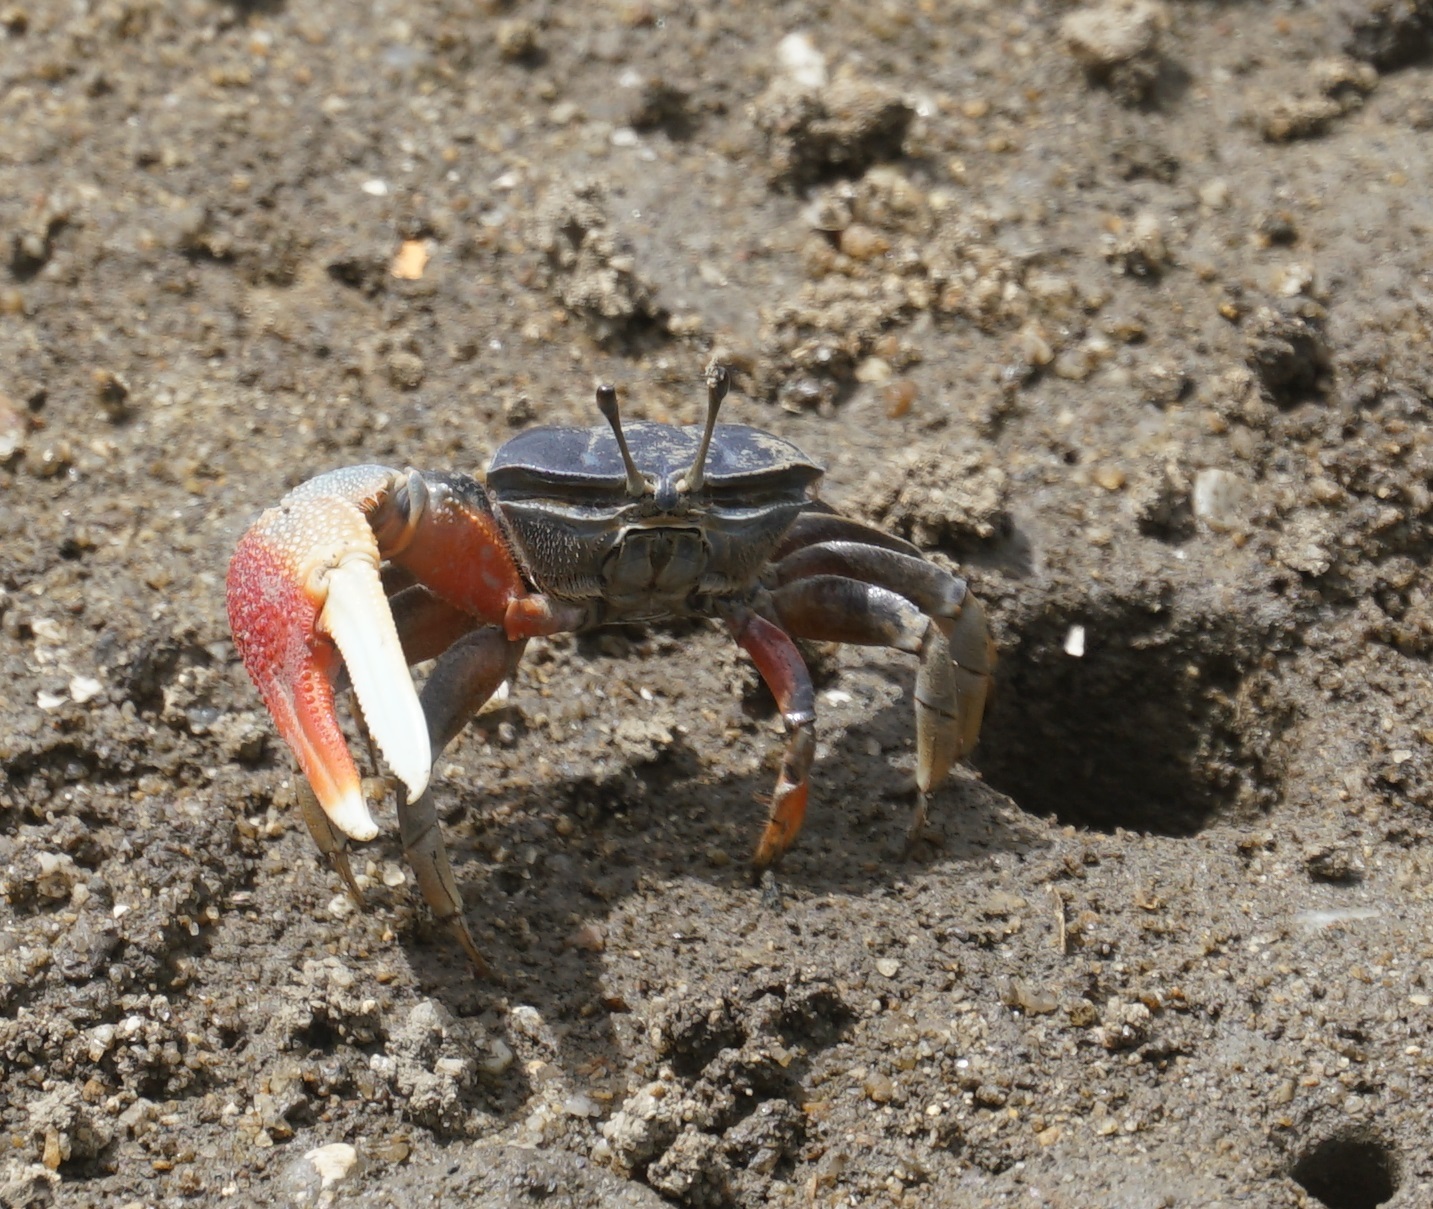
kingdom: Animalia
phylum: Arthropoda
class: Malacostraca
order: Decapoda
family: Ocypodidae
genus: Tubuca
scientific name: Tubuca dussumieri
